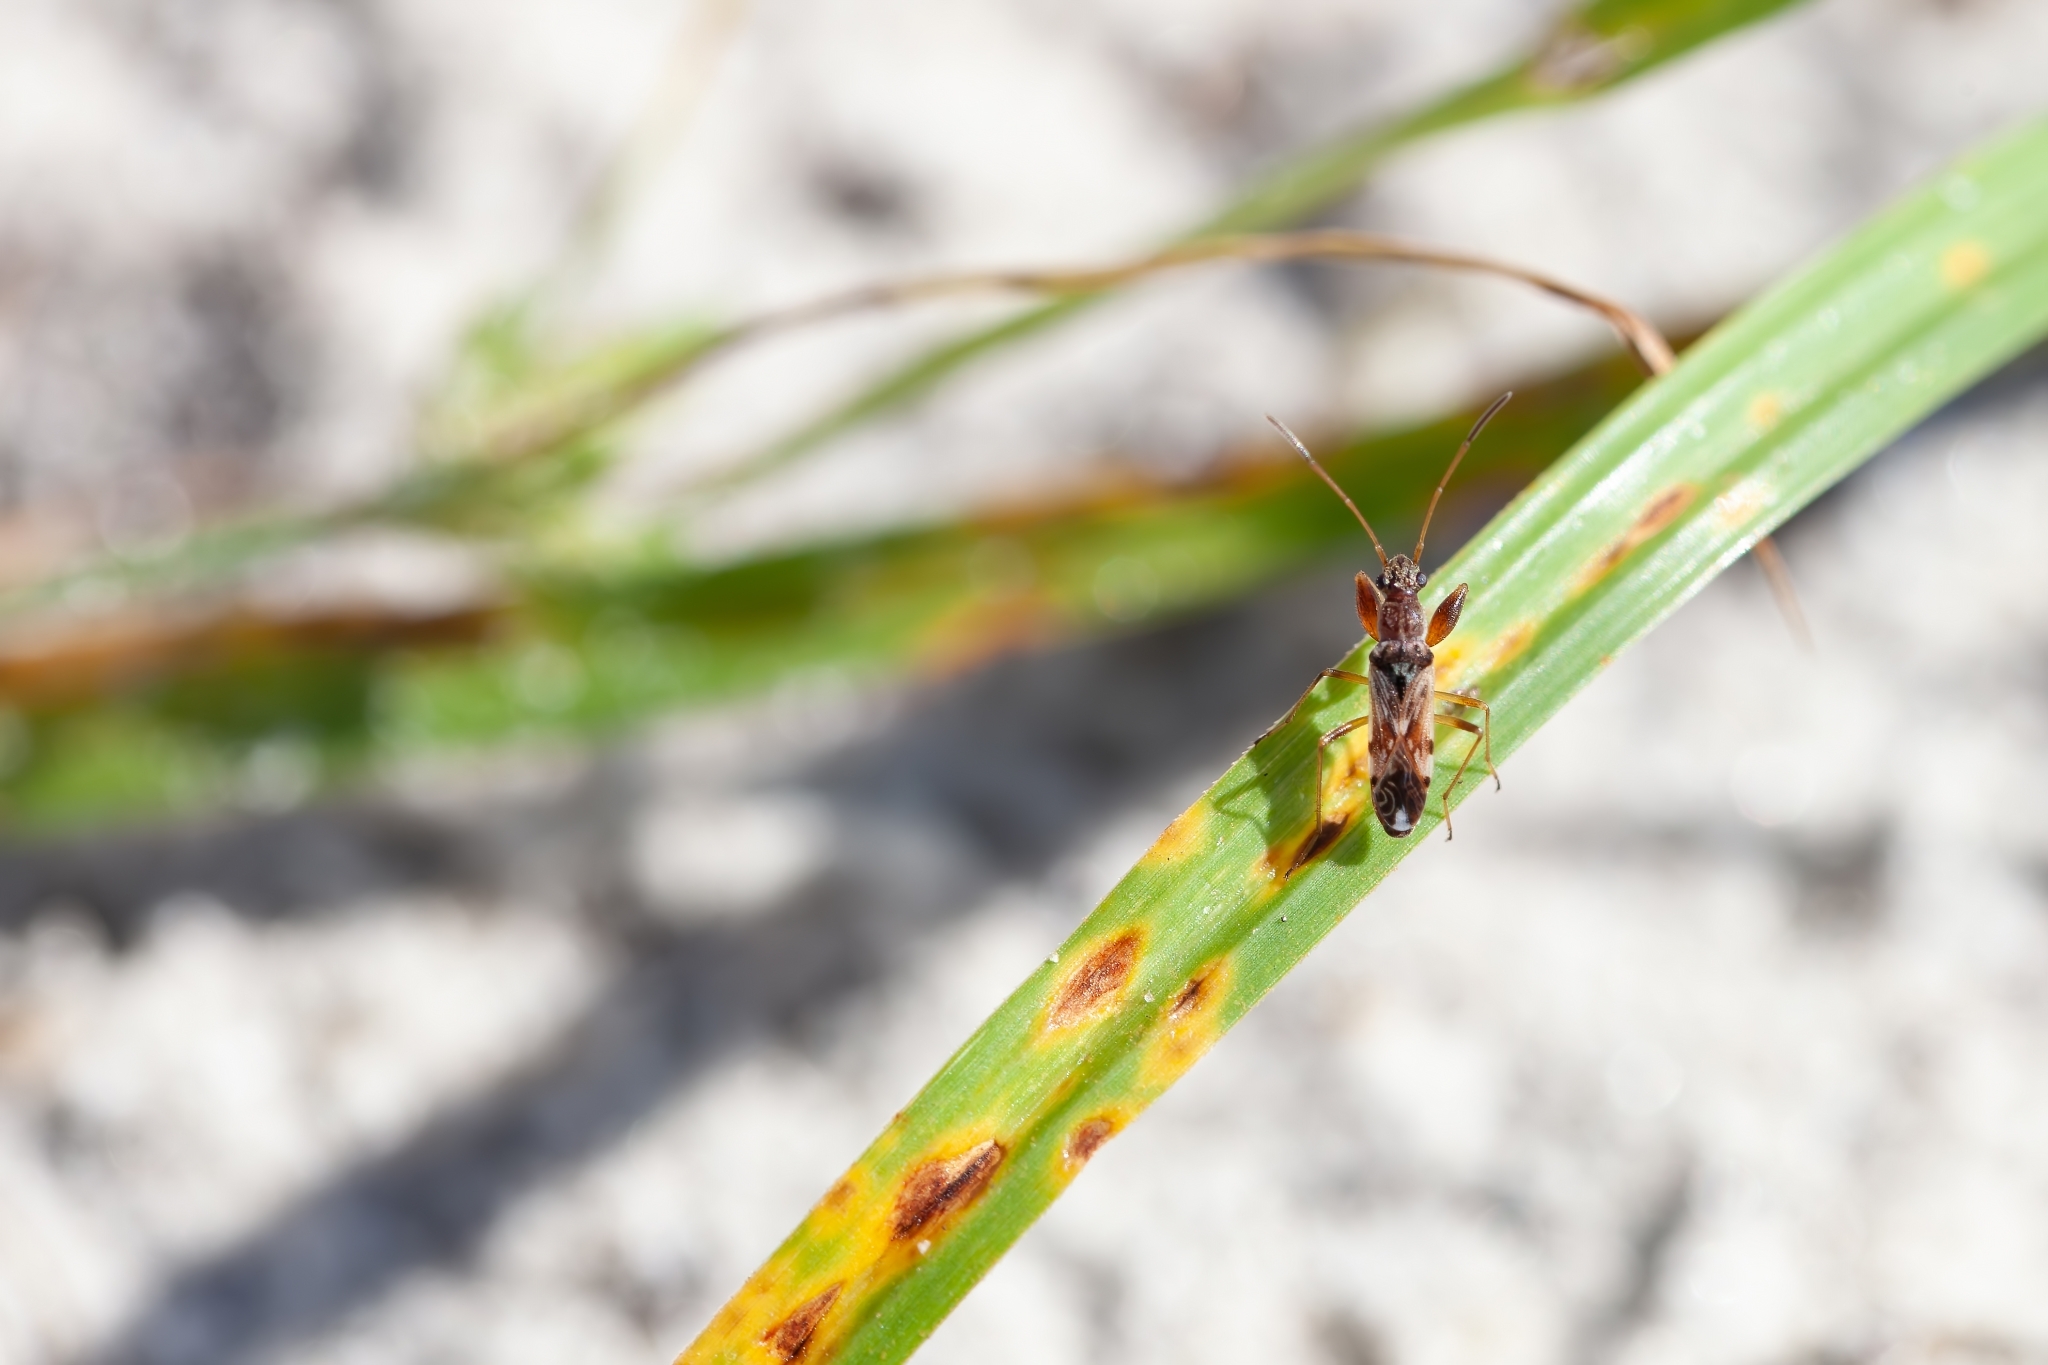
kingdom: Animalia
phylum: Arthropoda
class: Insecta
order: Hemiptera
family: Rhyparochromidae
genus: Neopamera
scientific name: Neopamera bilobata
